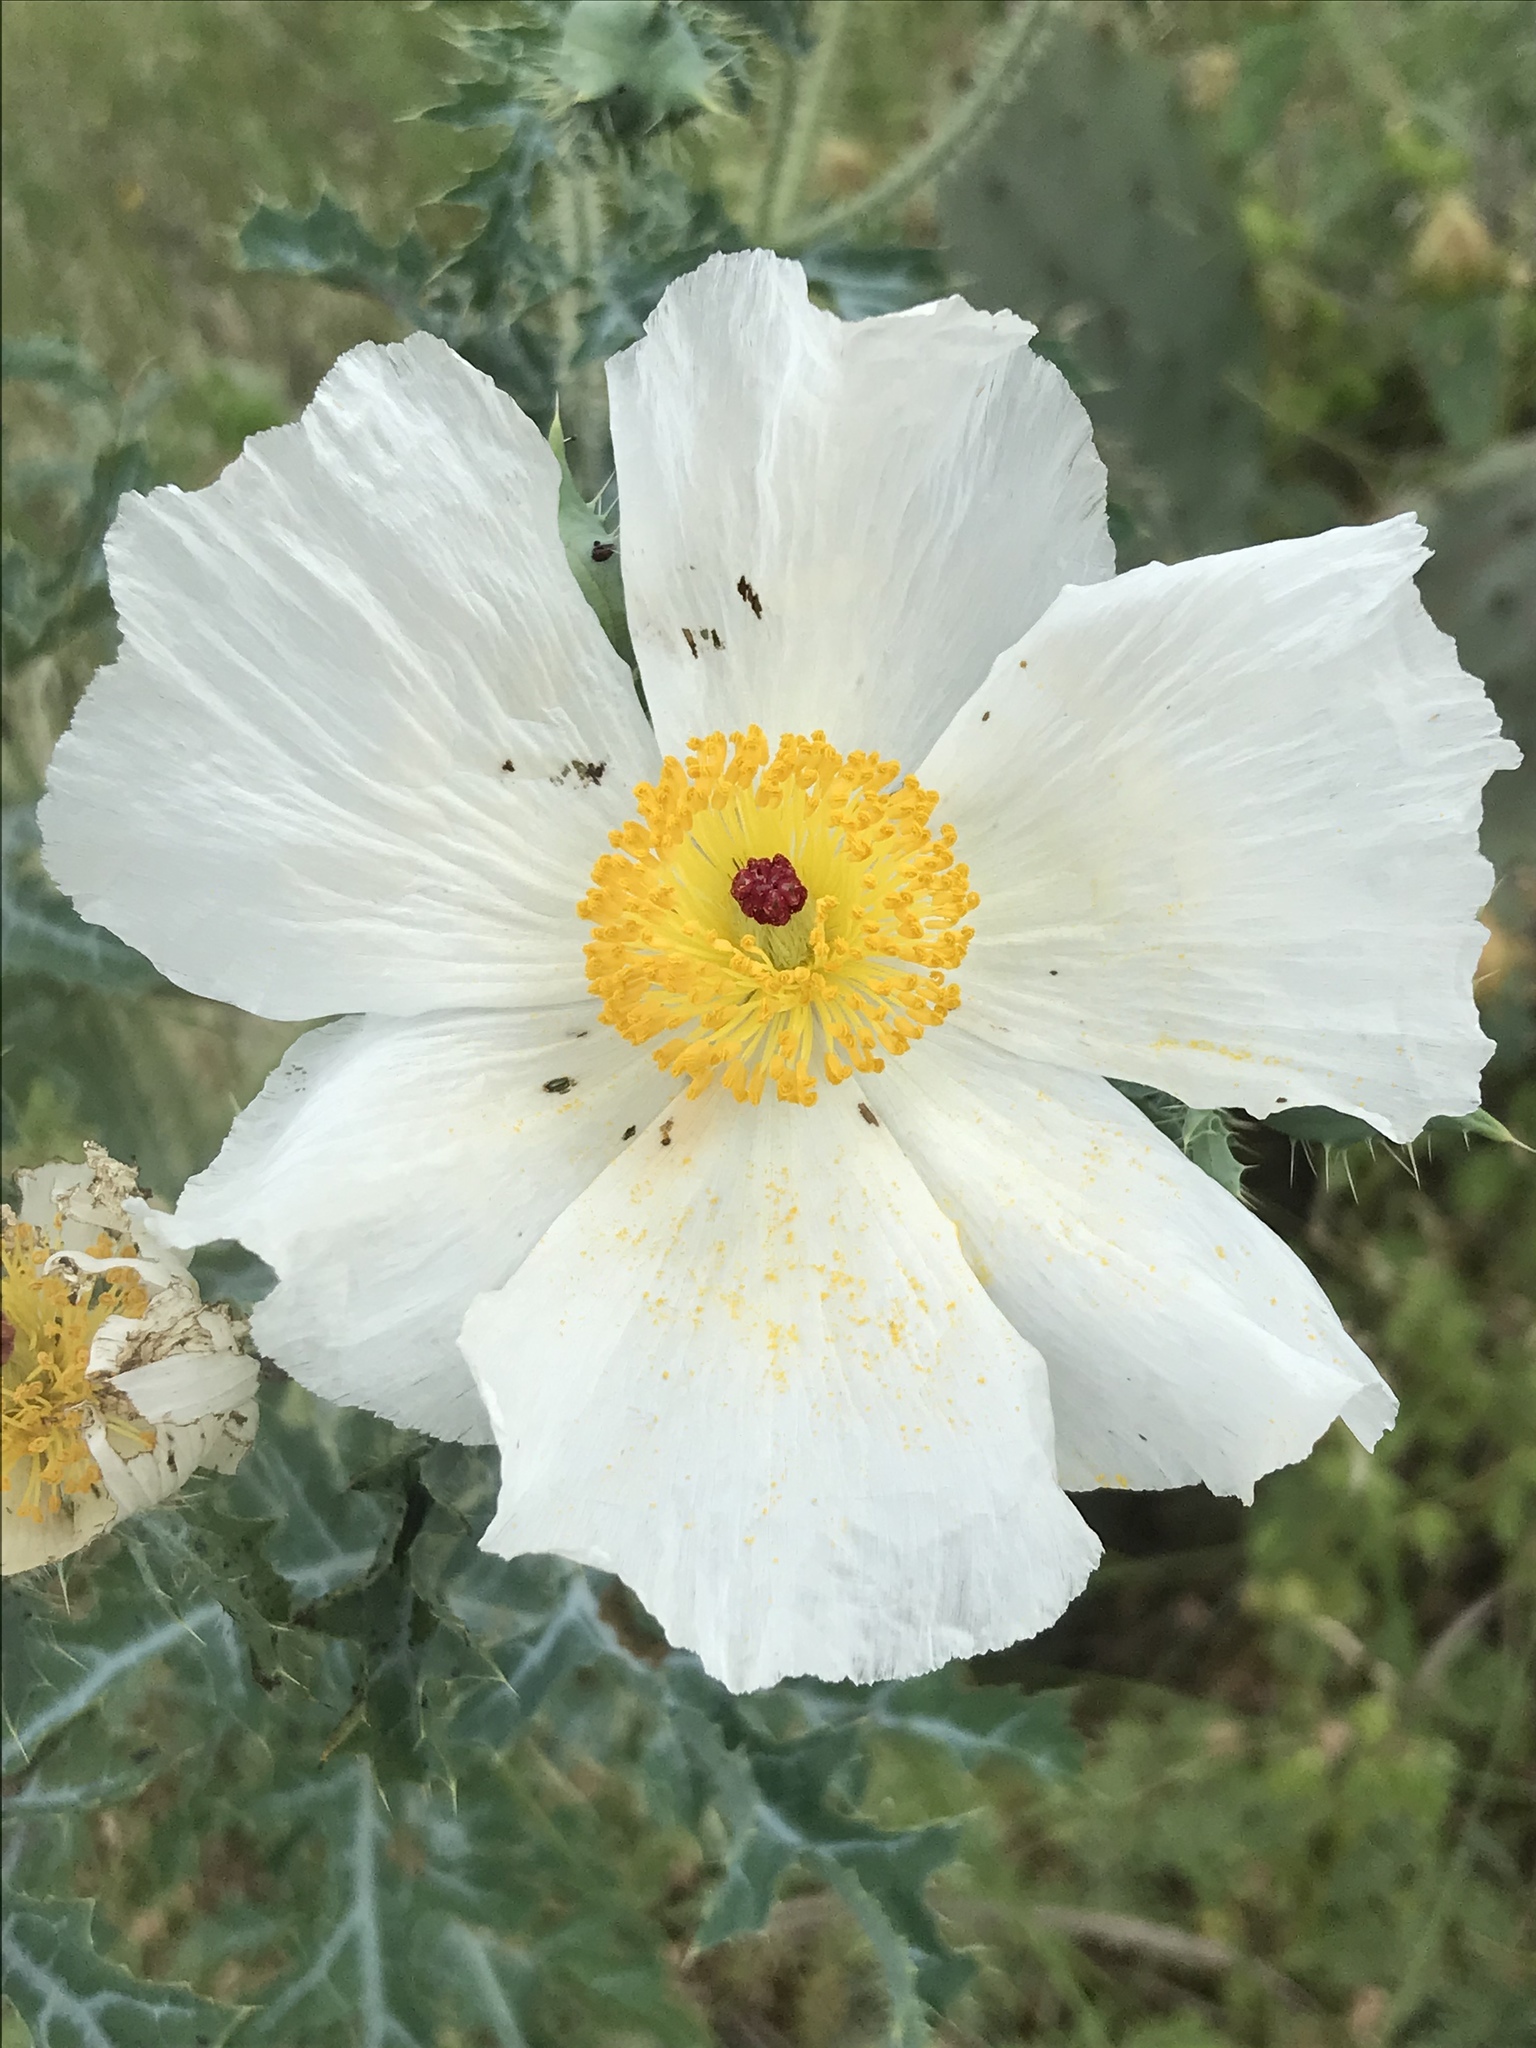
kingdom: Plantae
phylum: Tracheophyta
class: Magnoliopsida
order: Ranunculales
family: Papaveraceae
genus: Argemone
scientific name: Argemone albiflora
